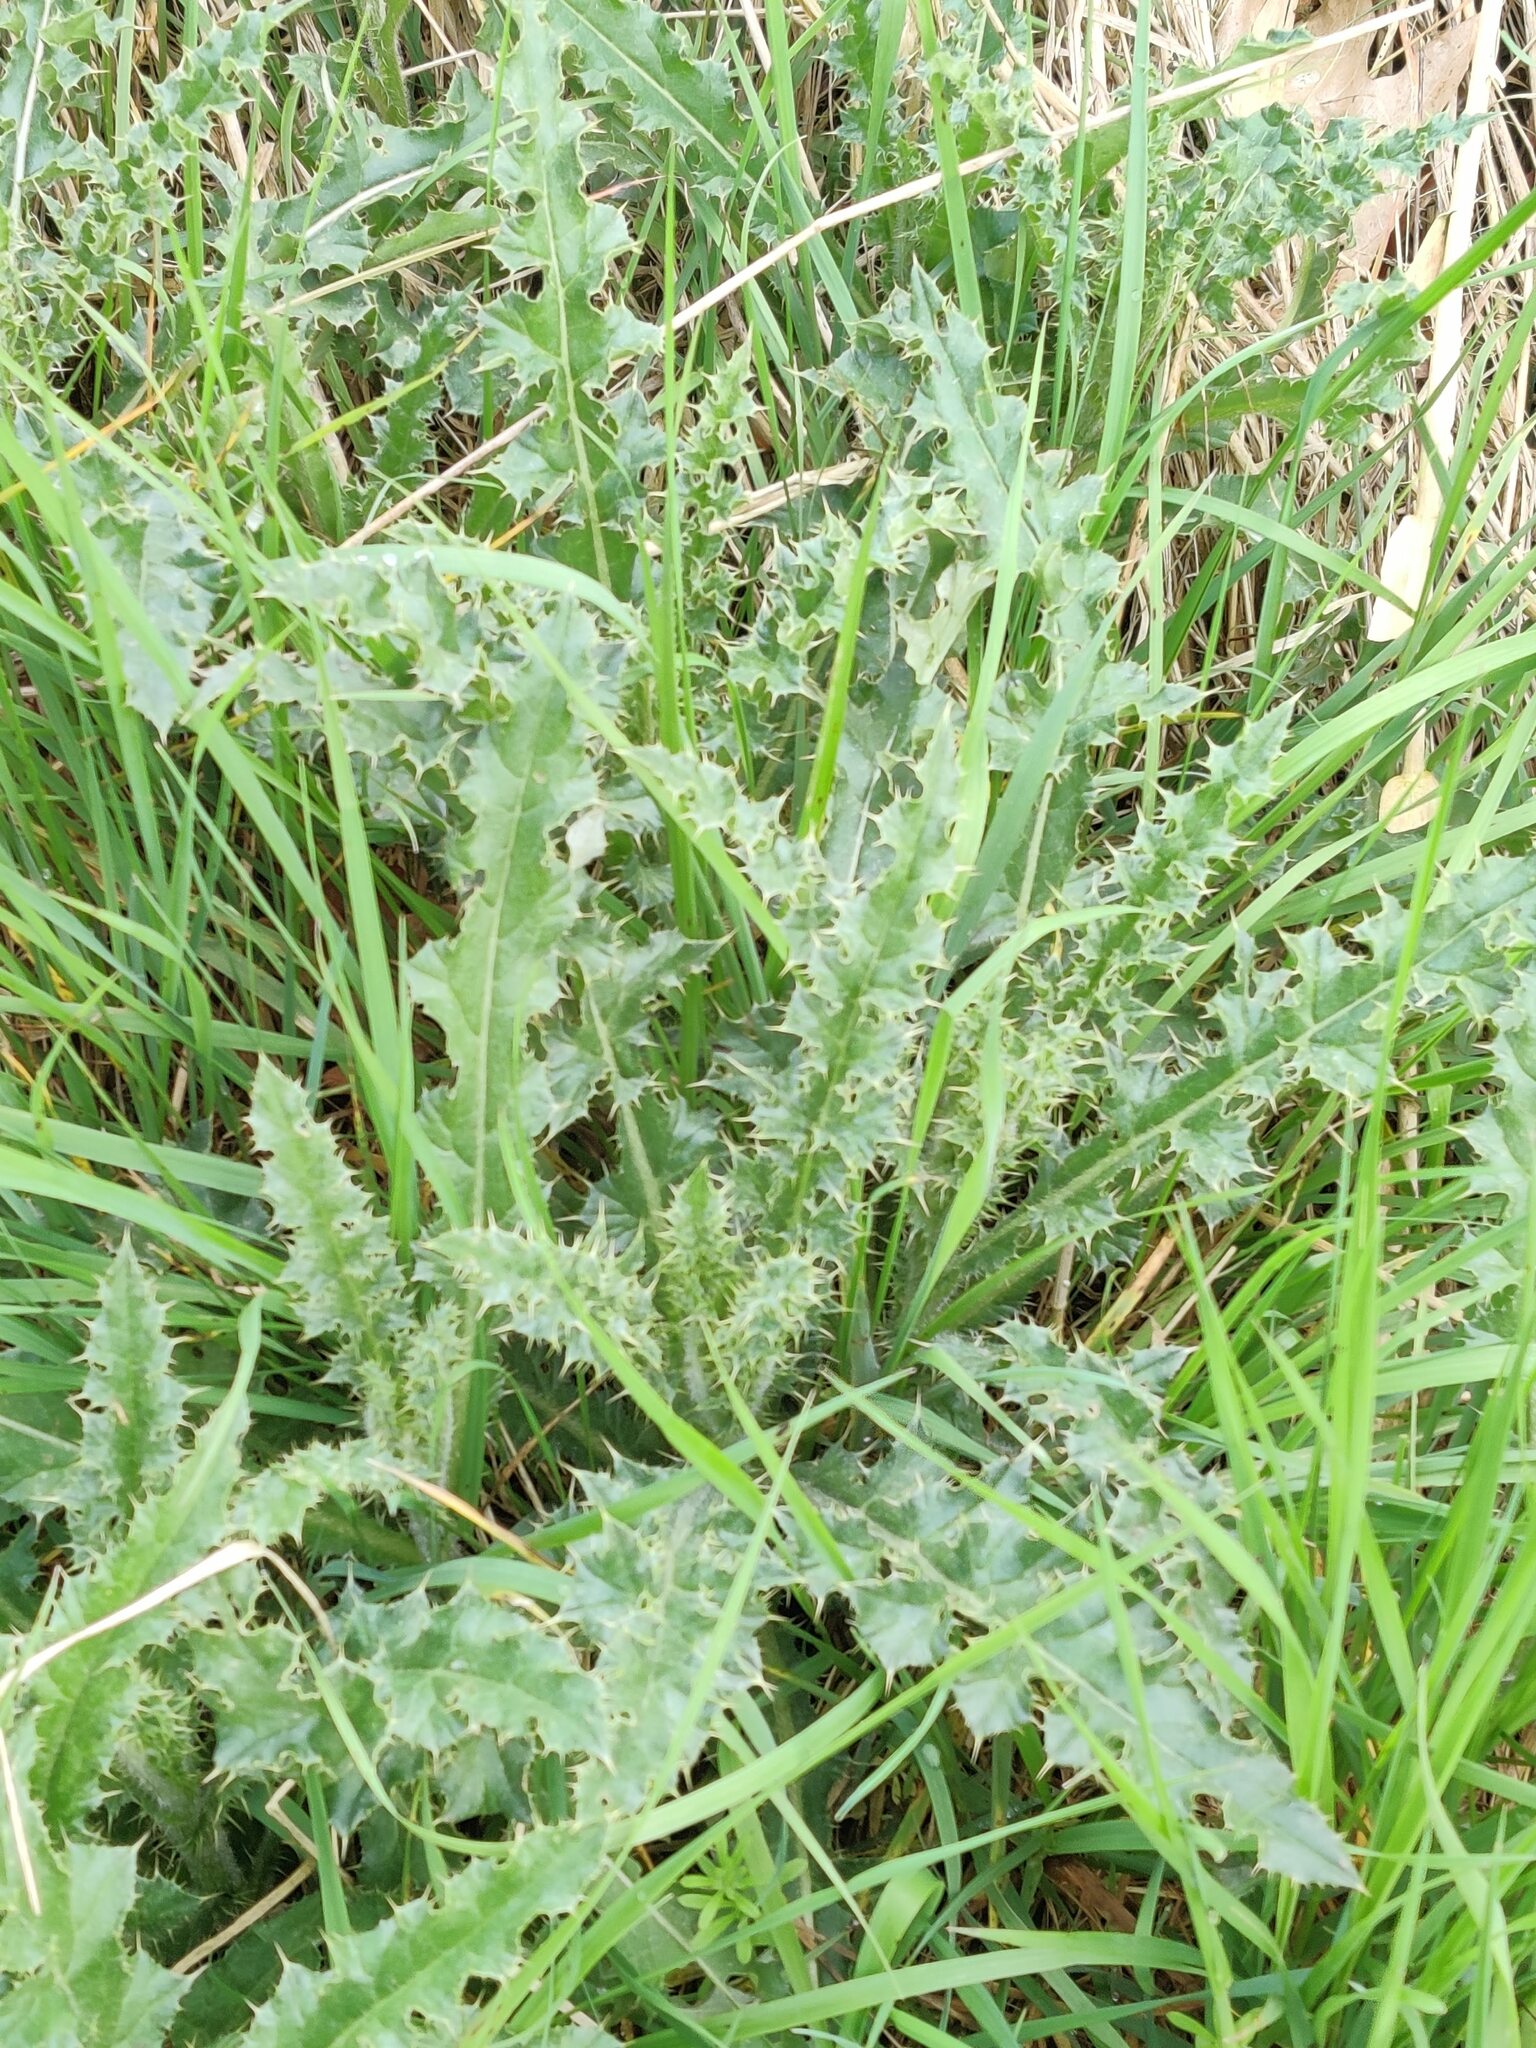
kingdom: Plantae
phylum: Tracheophyta
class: Magnoliopsida
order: Asterales
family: Asteraceae
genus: Cirsium
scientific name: Cirsium arvense
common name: Creeping thistle
